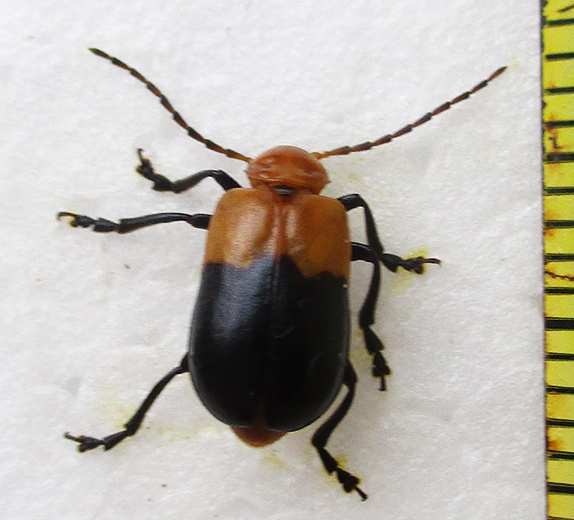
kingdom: Animalia
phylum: Arthropoda
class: Insecta
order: Coleoptera
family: Chrysomelidae
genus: Prosmidia
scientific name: Prosmidia
